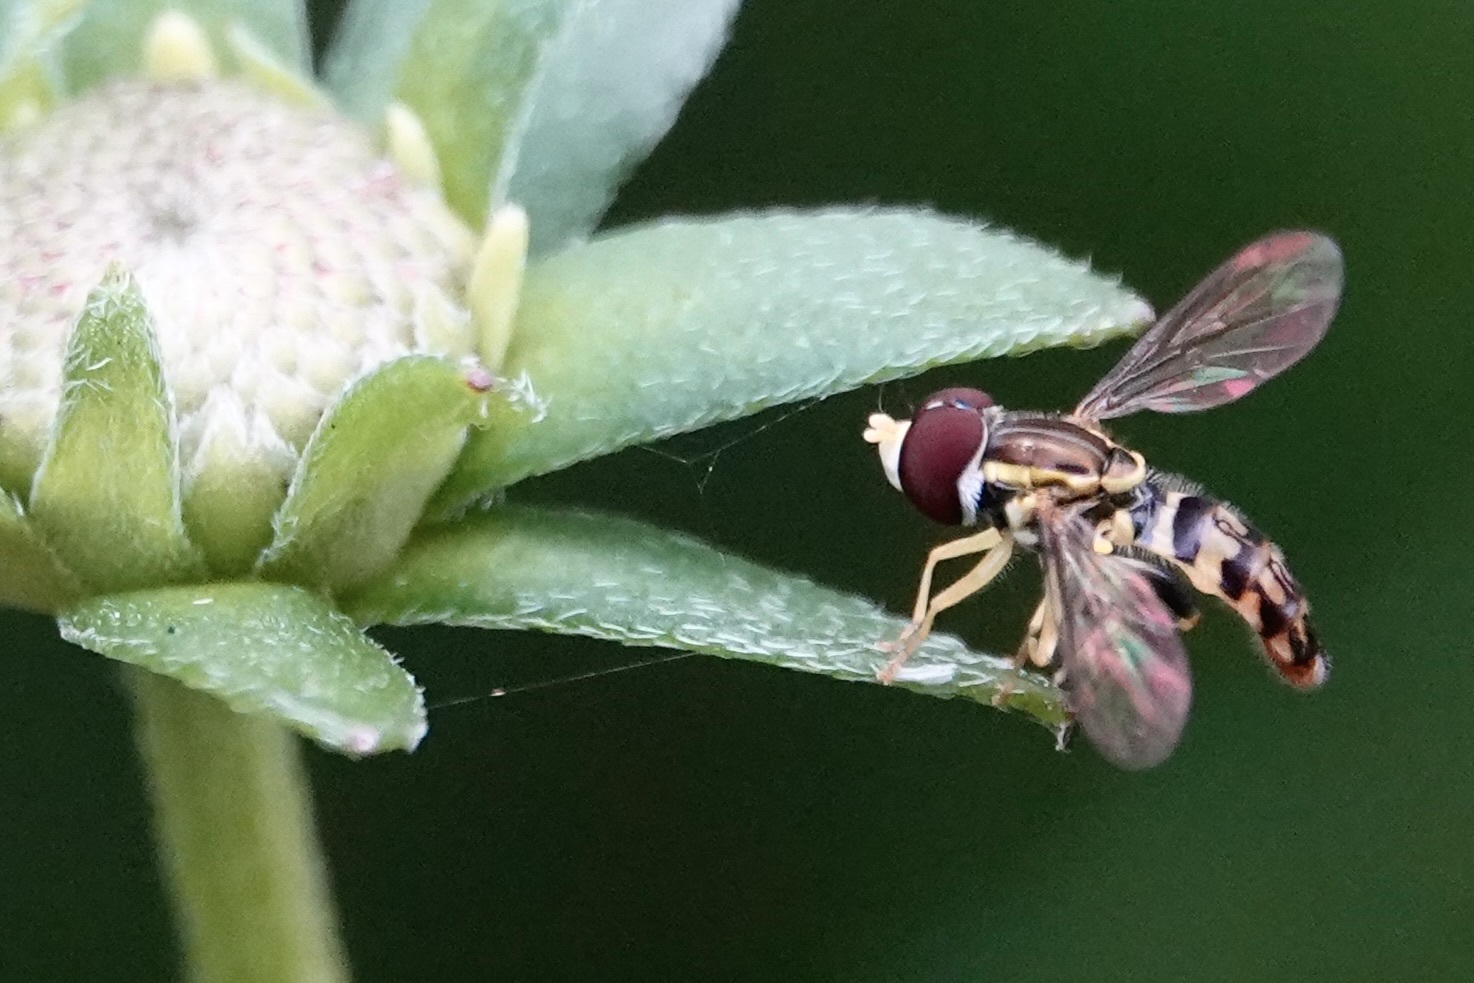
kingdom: Animalia
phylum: Arthropoda
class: Insecta
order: Diptera
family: Syrphidae
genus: Toxomerus
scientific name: Toxomerus geminatus
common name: Eastern calligrapher
